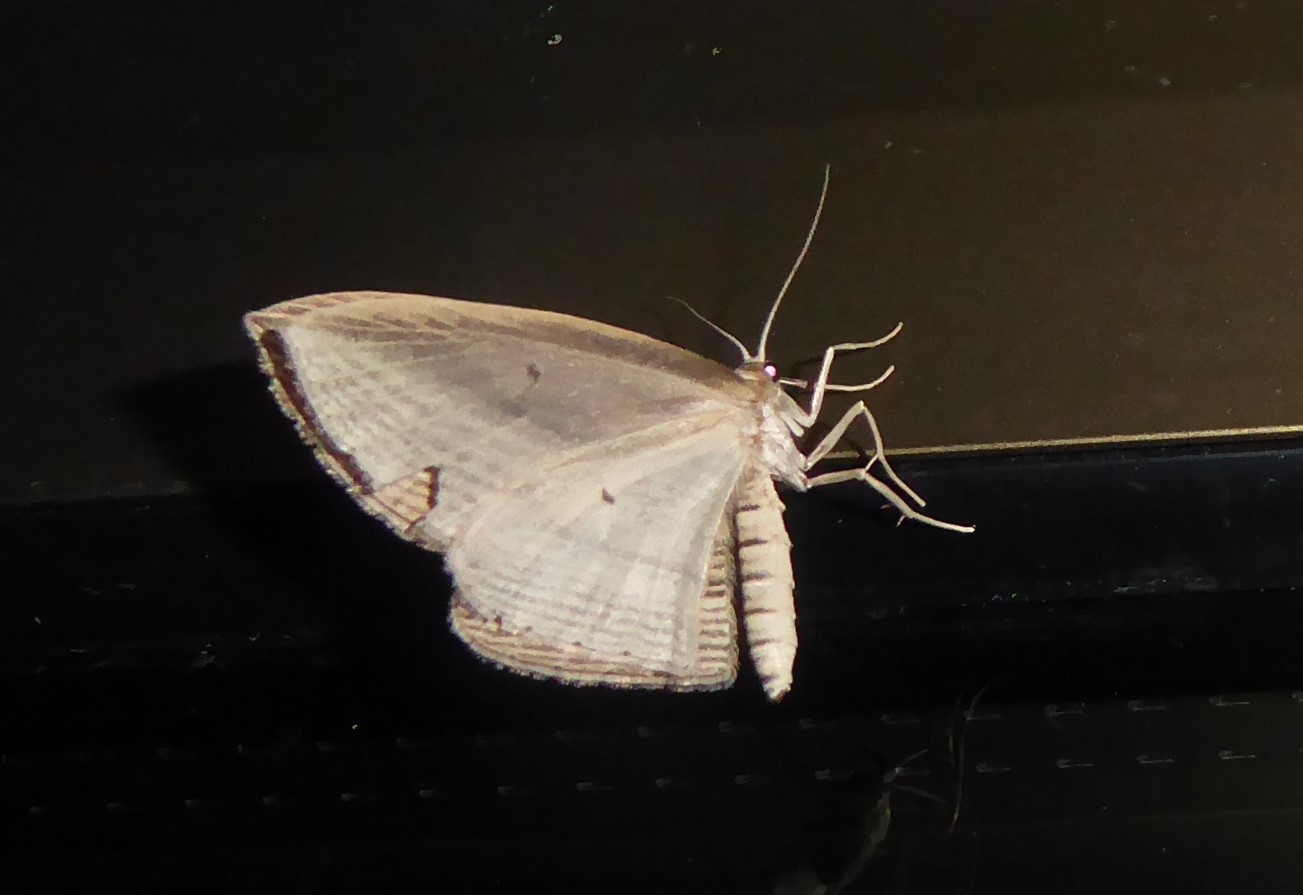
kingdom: Animalia
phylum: Arthropoda
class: Insecta
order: Lepidoptera
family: Geometridae
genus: Epiphryne
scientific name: Epiphryne verriculata
